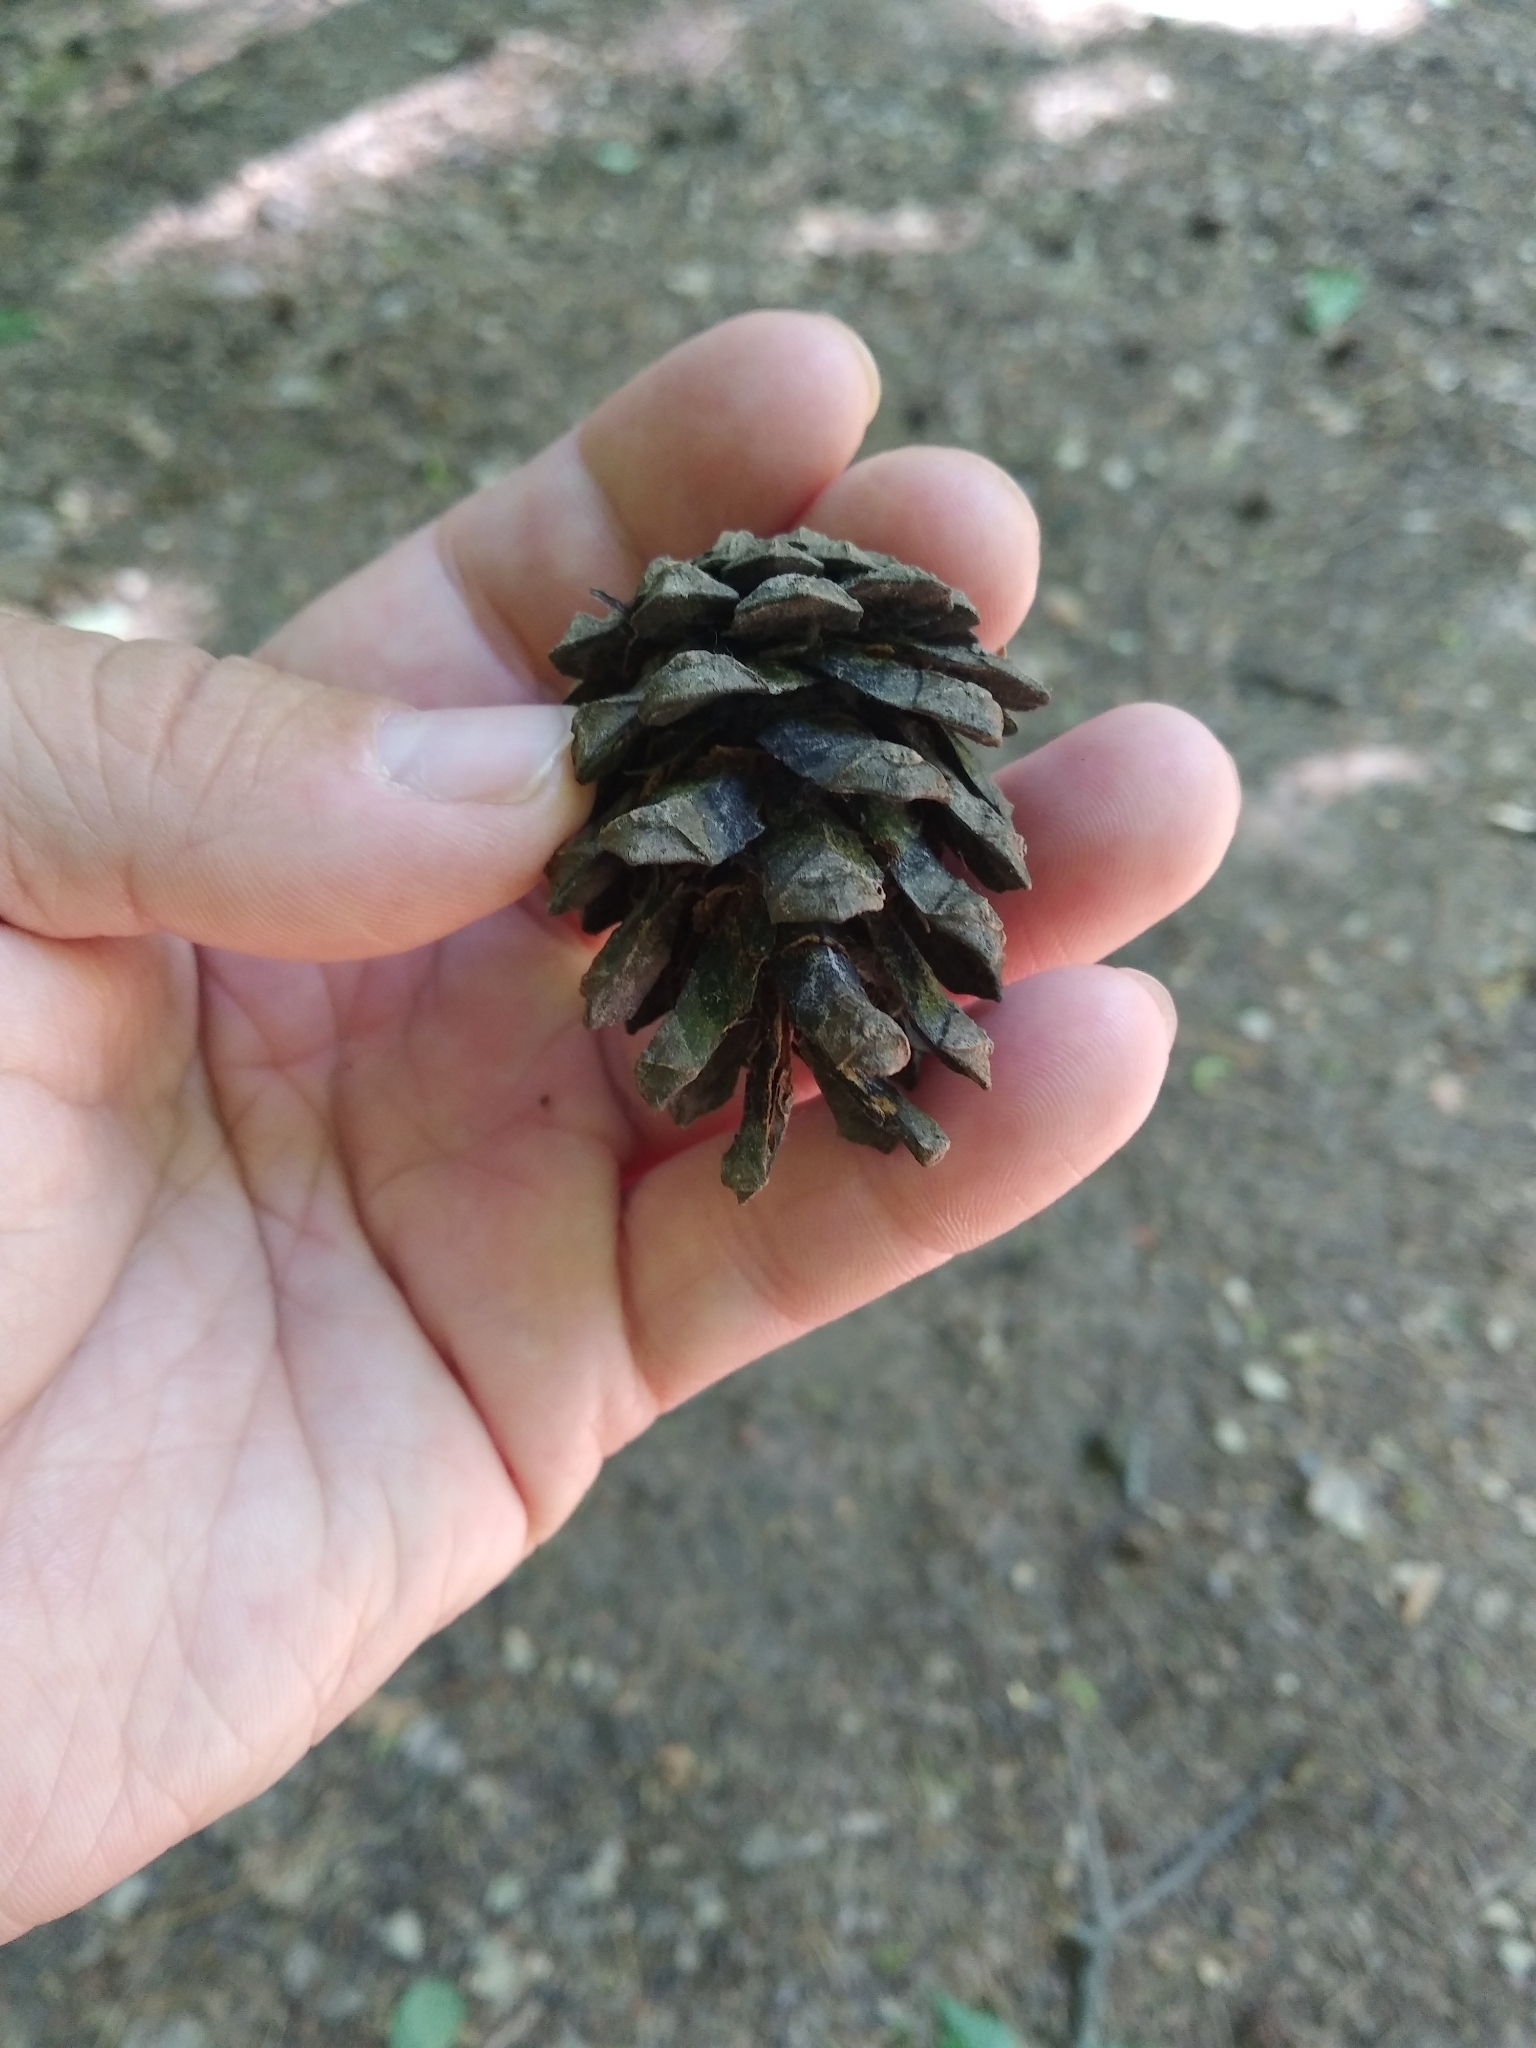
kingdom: Plantae
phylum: Tracheophyta
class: Pinopsida
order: Pinales
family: Pinaceae
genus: Pinus
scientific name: Pinus sylvestris
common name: Scots pine
